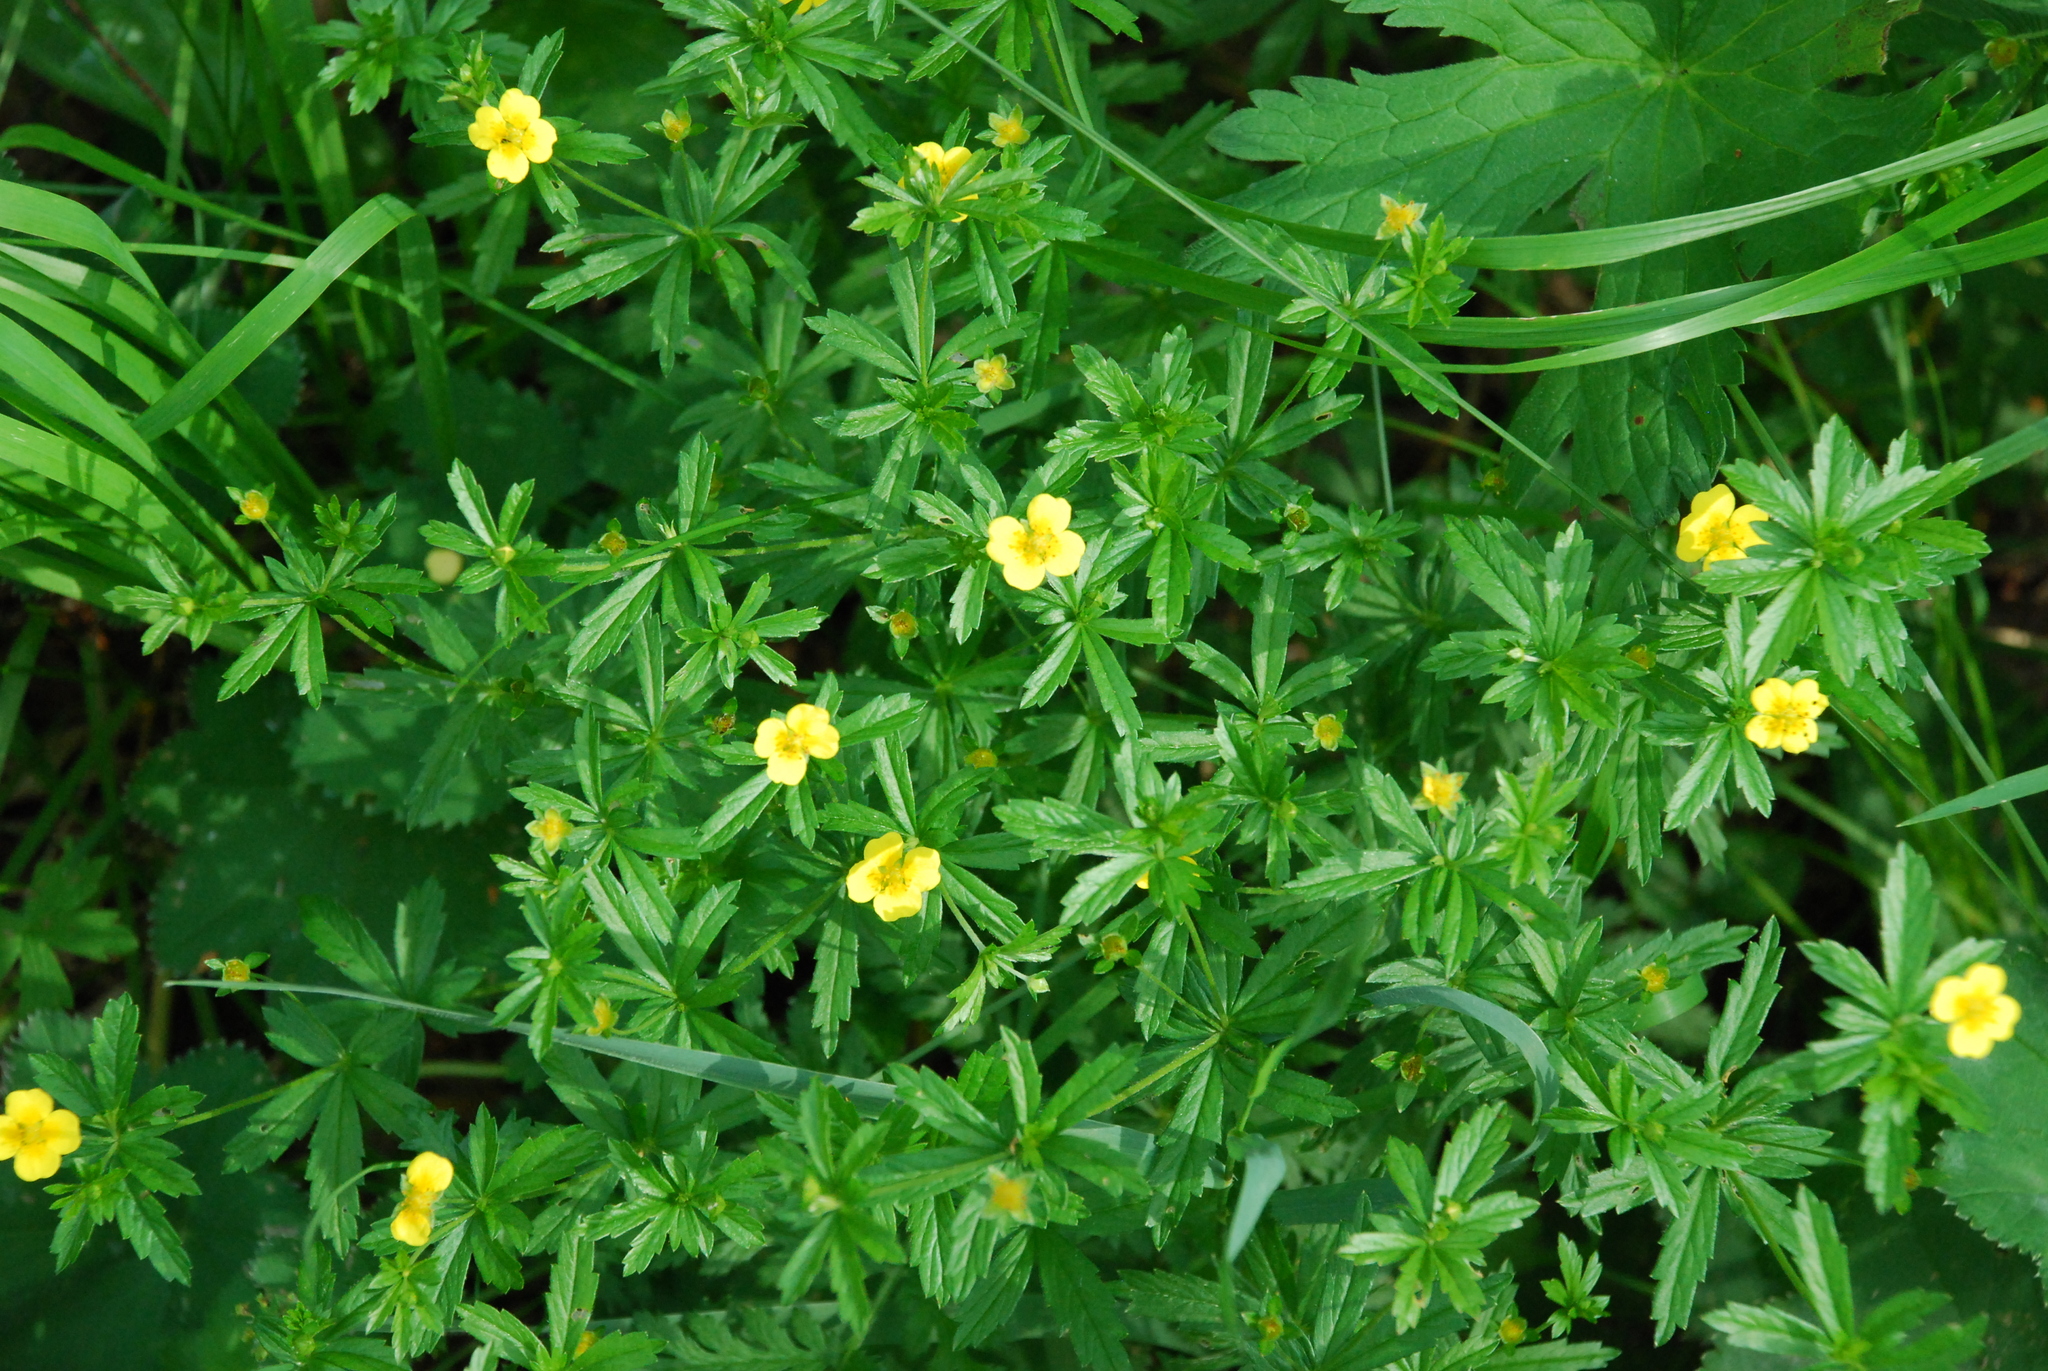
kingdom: Plantae
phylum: Tracheophyta
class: Magnoliopsida
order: Rosales
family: Rosaceae
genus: Potentilla
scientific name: Potentilla erecta
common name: Tormentil
